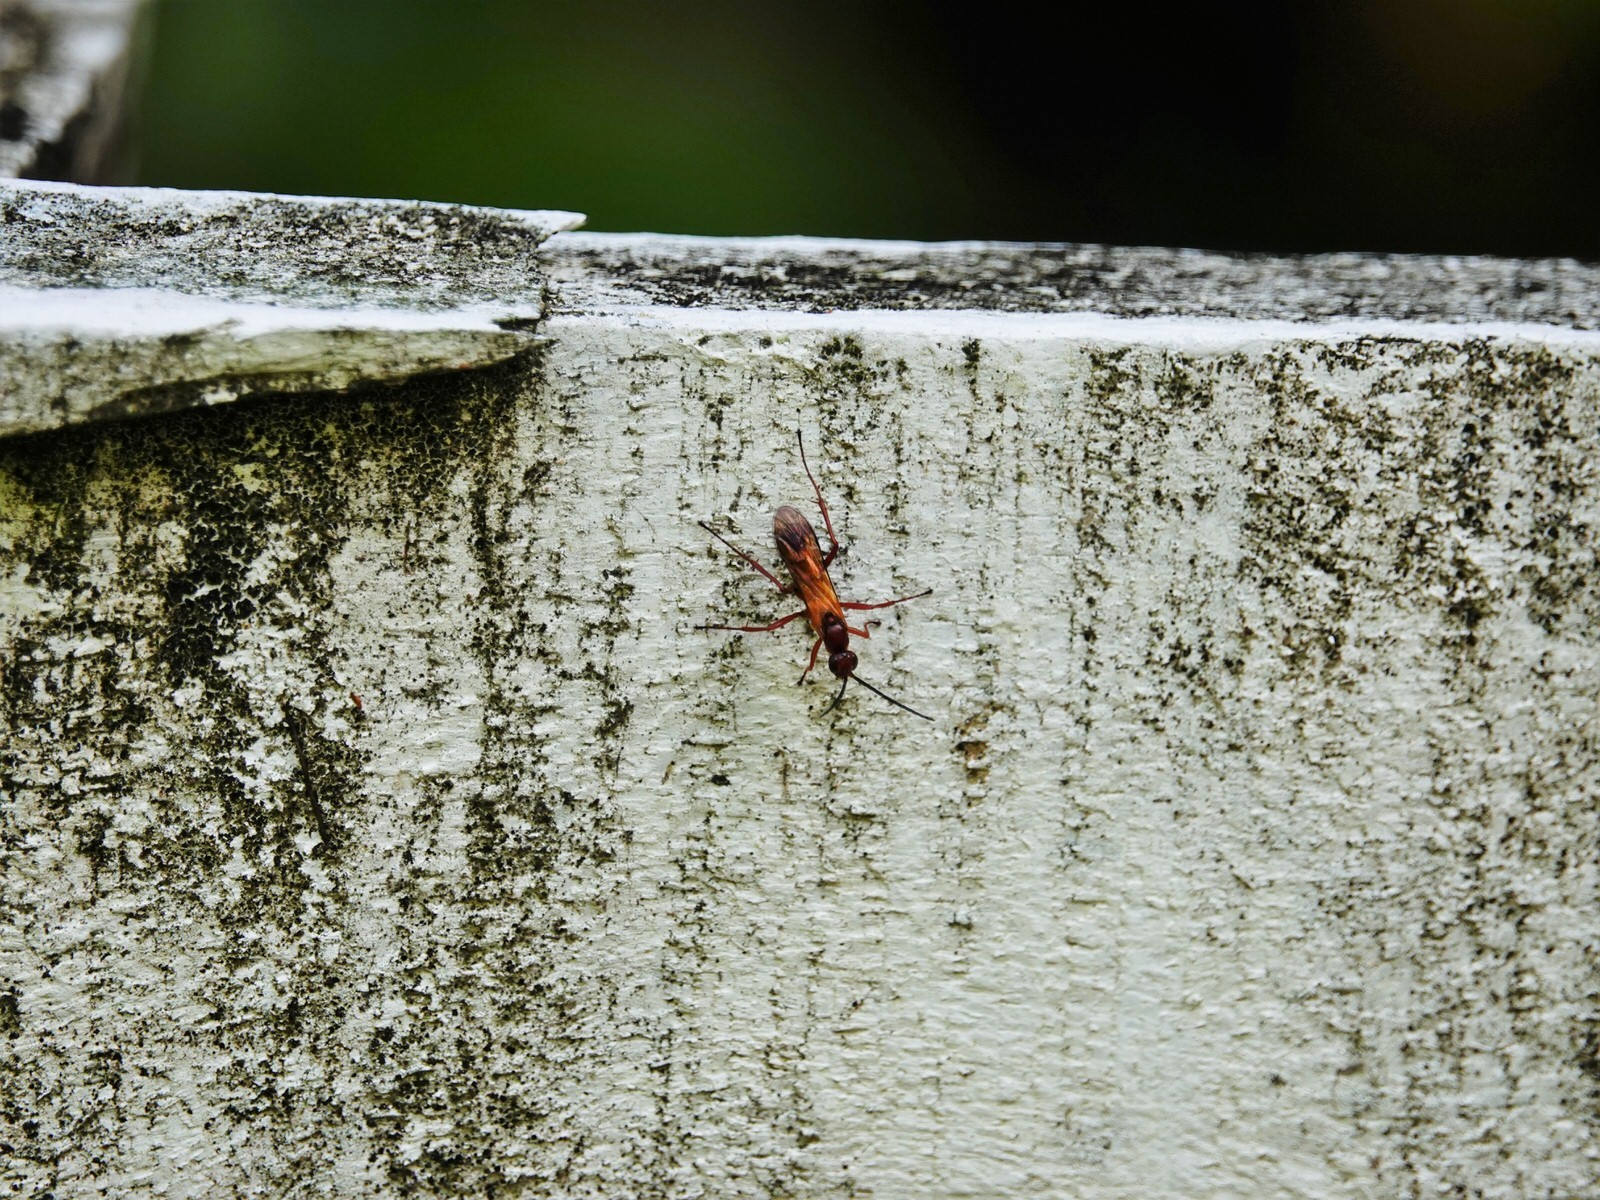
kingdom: Animalia
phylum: Arthropoda
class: Insecta
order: Hymenoptera
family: Pompilidae
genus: Sphictostethus
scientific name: Sphictostethus nitidus
